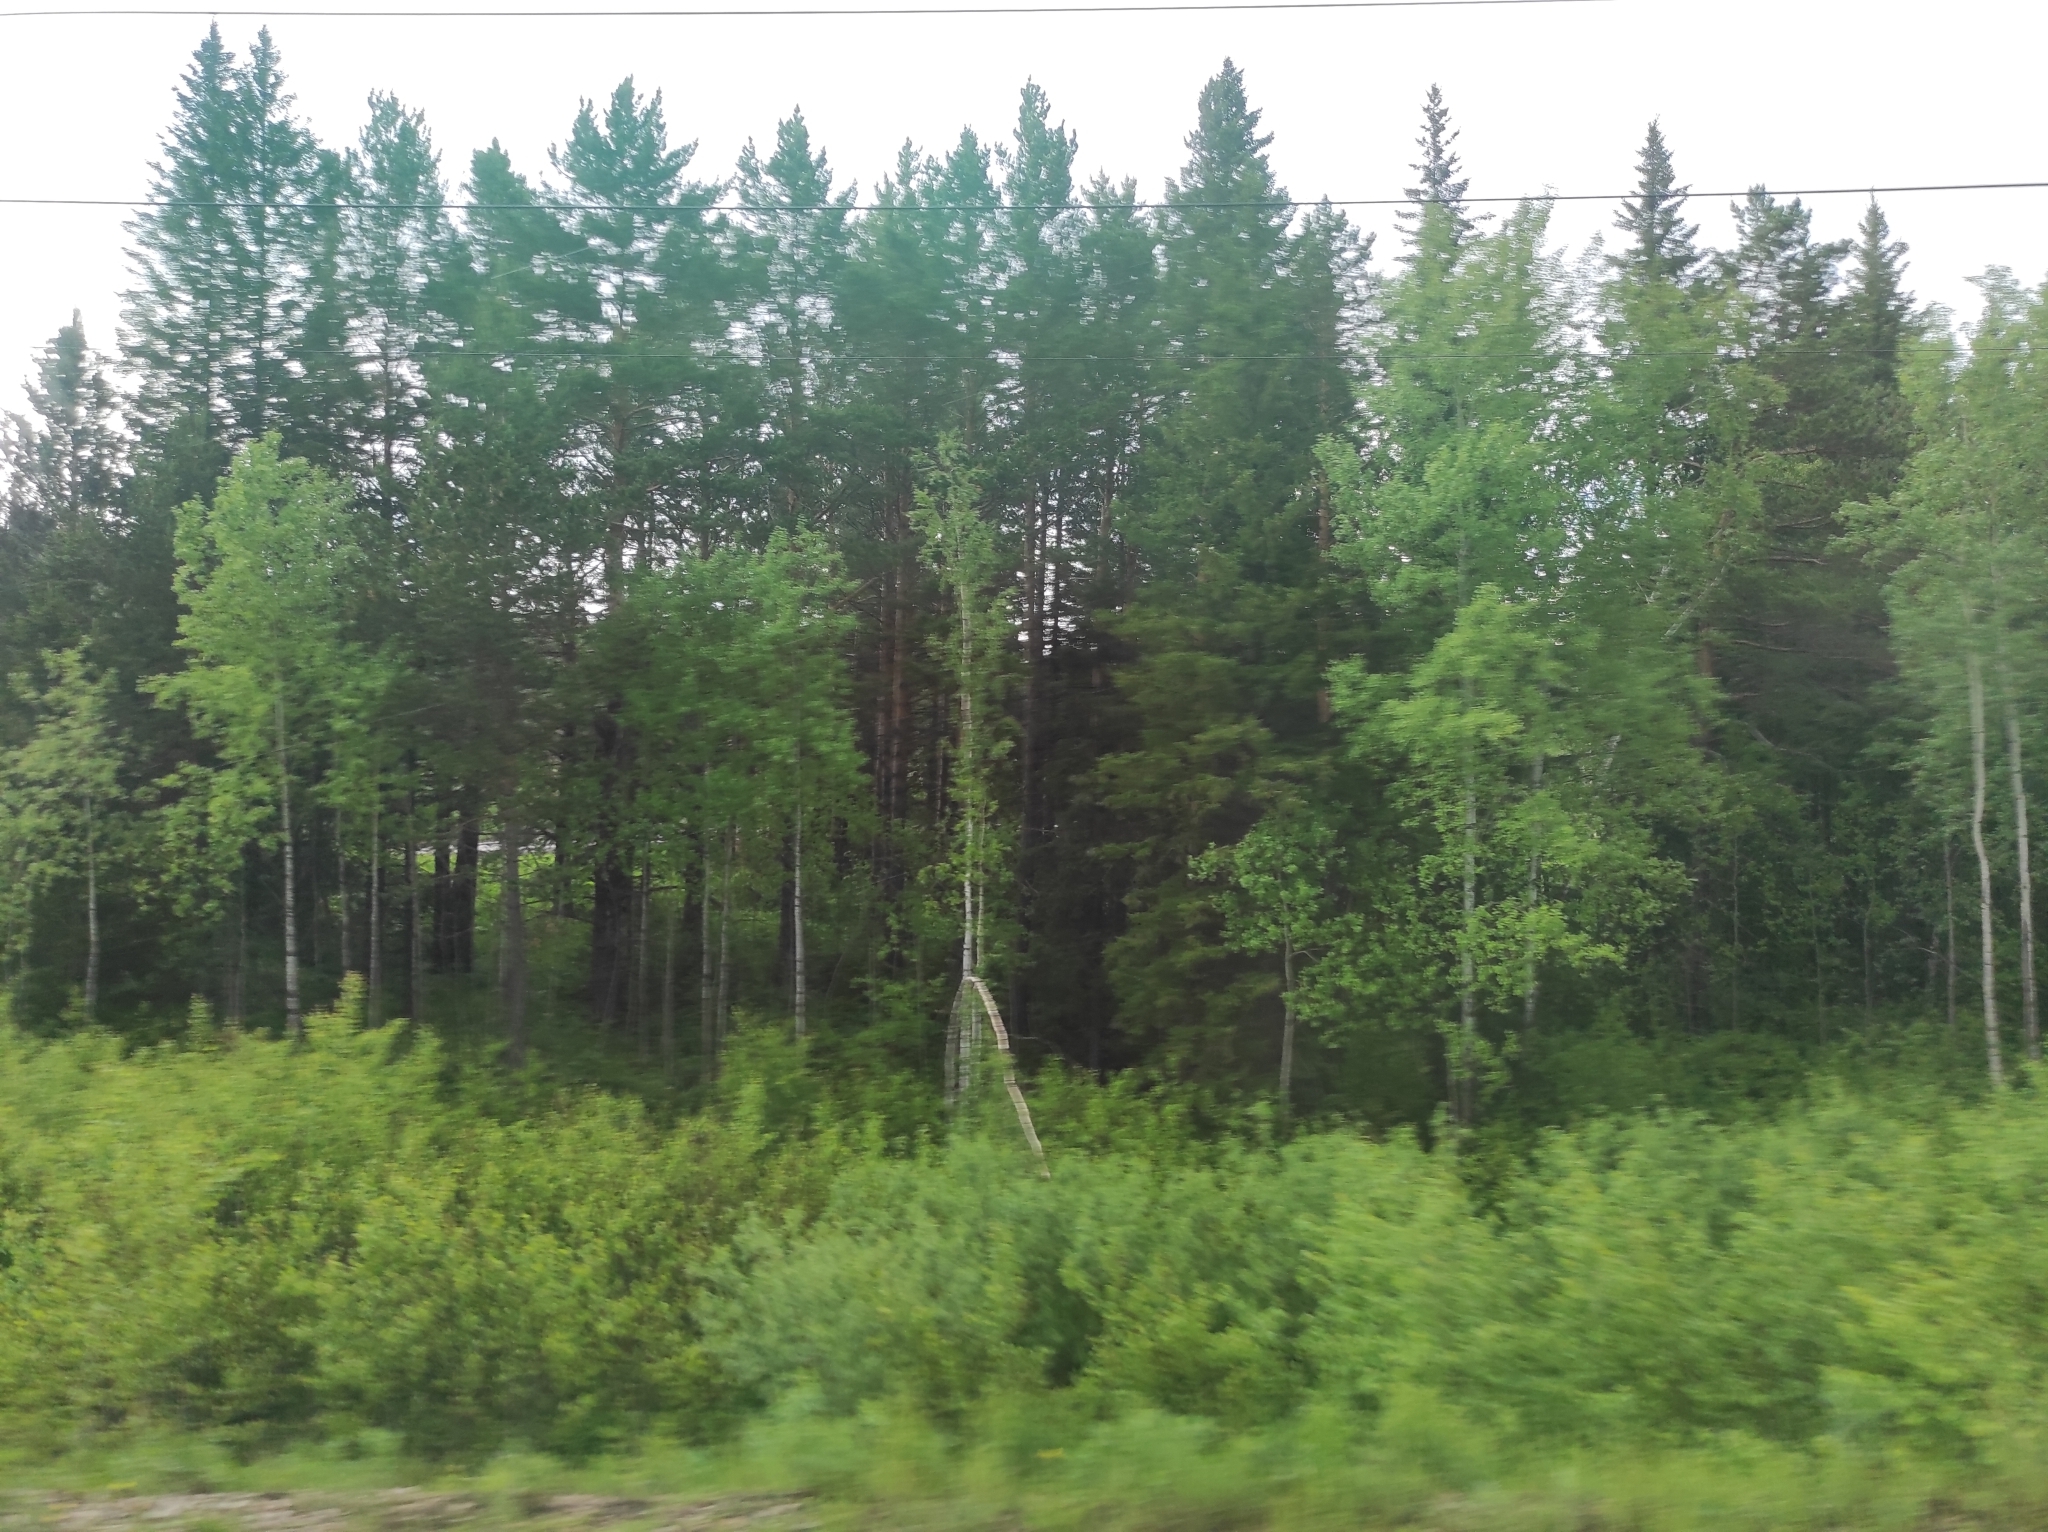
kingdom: Plantae
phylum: Tracheophyta
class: Pinopsida
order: Pinales
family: Pinaceae
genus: Pinus
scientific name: Pinus sylvestris
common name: Scots pine
